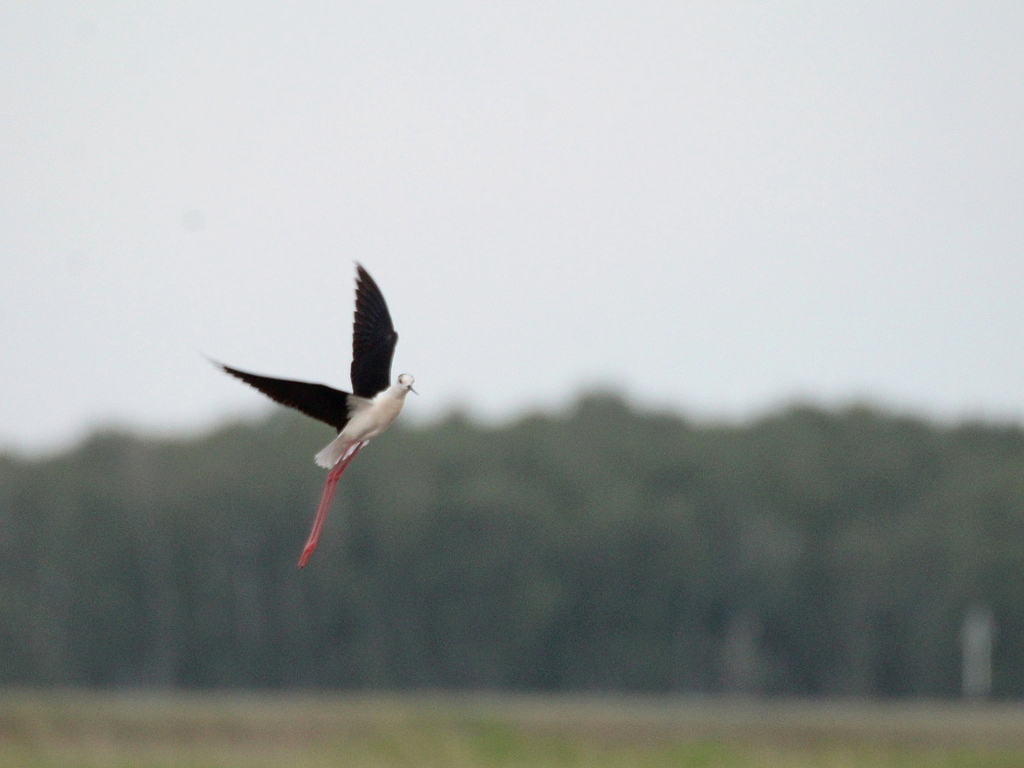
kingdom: Animalia
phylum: Chordata
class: Aves
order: Charadriiformes
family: Recurvirostridae
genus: Himantopus
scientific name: Himantopus himantopus
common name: Black-winged stilt
